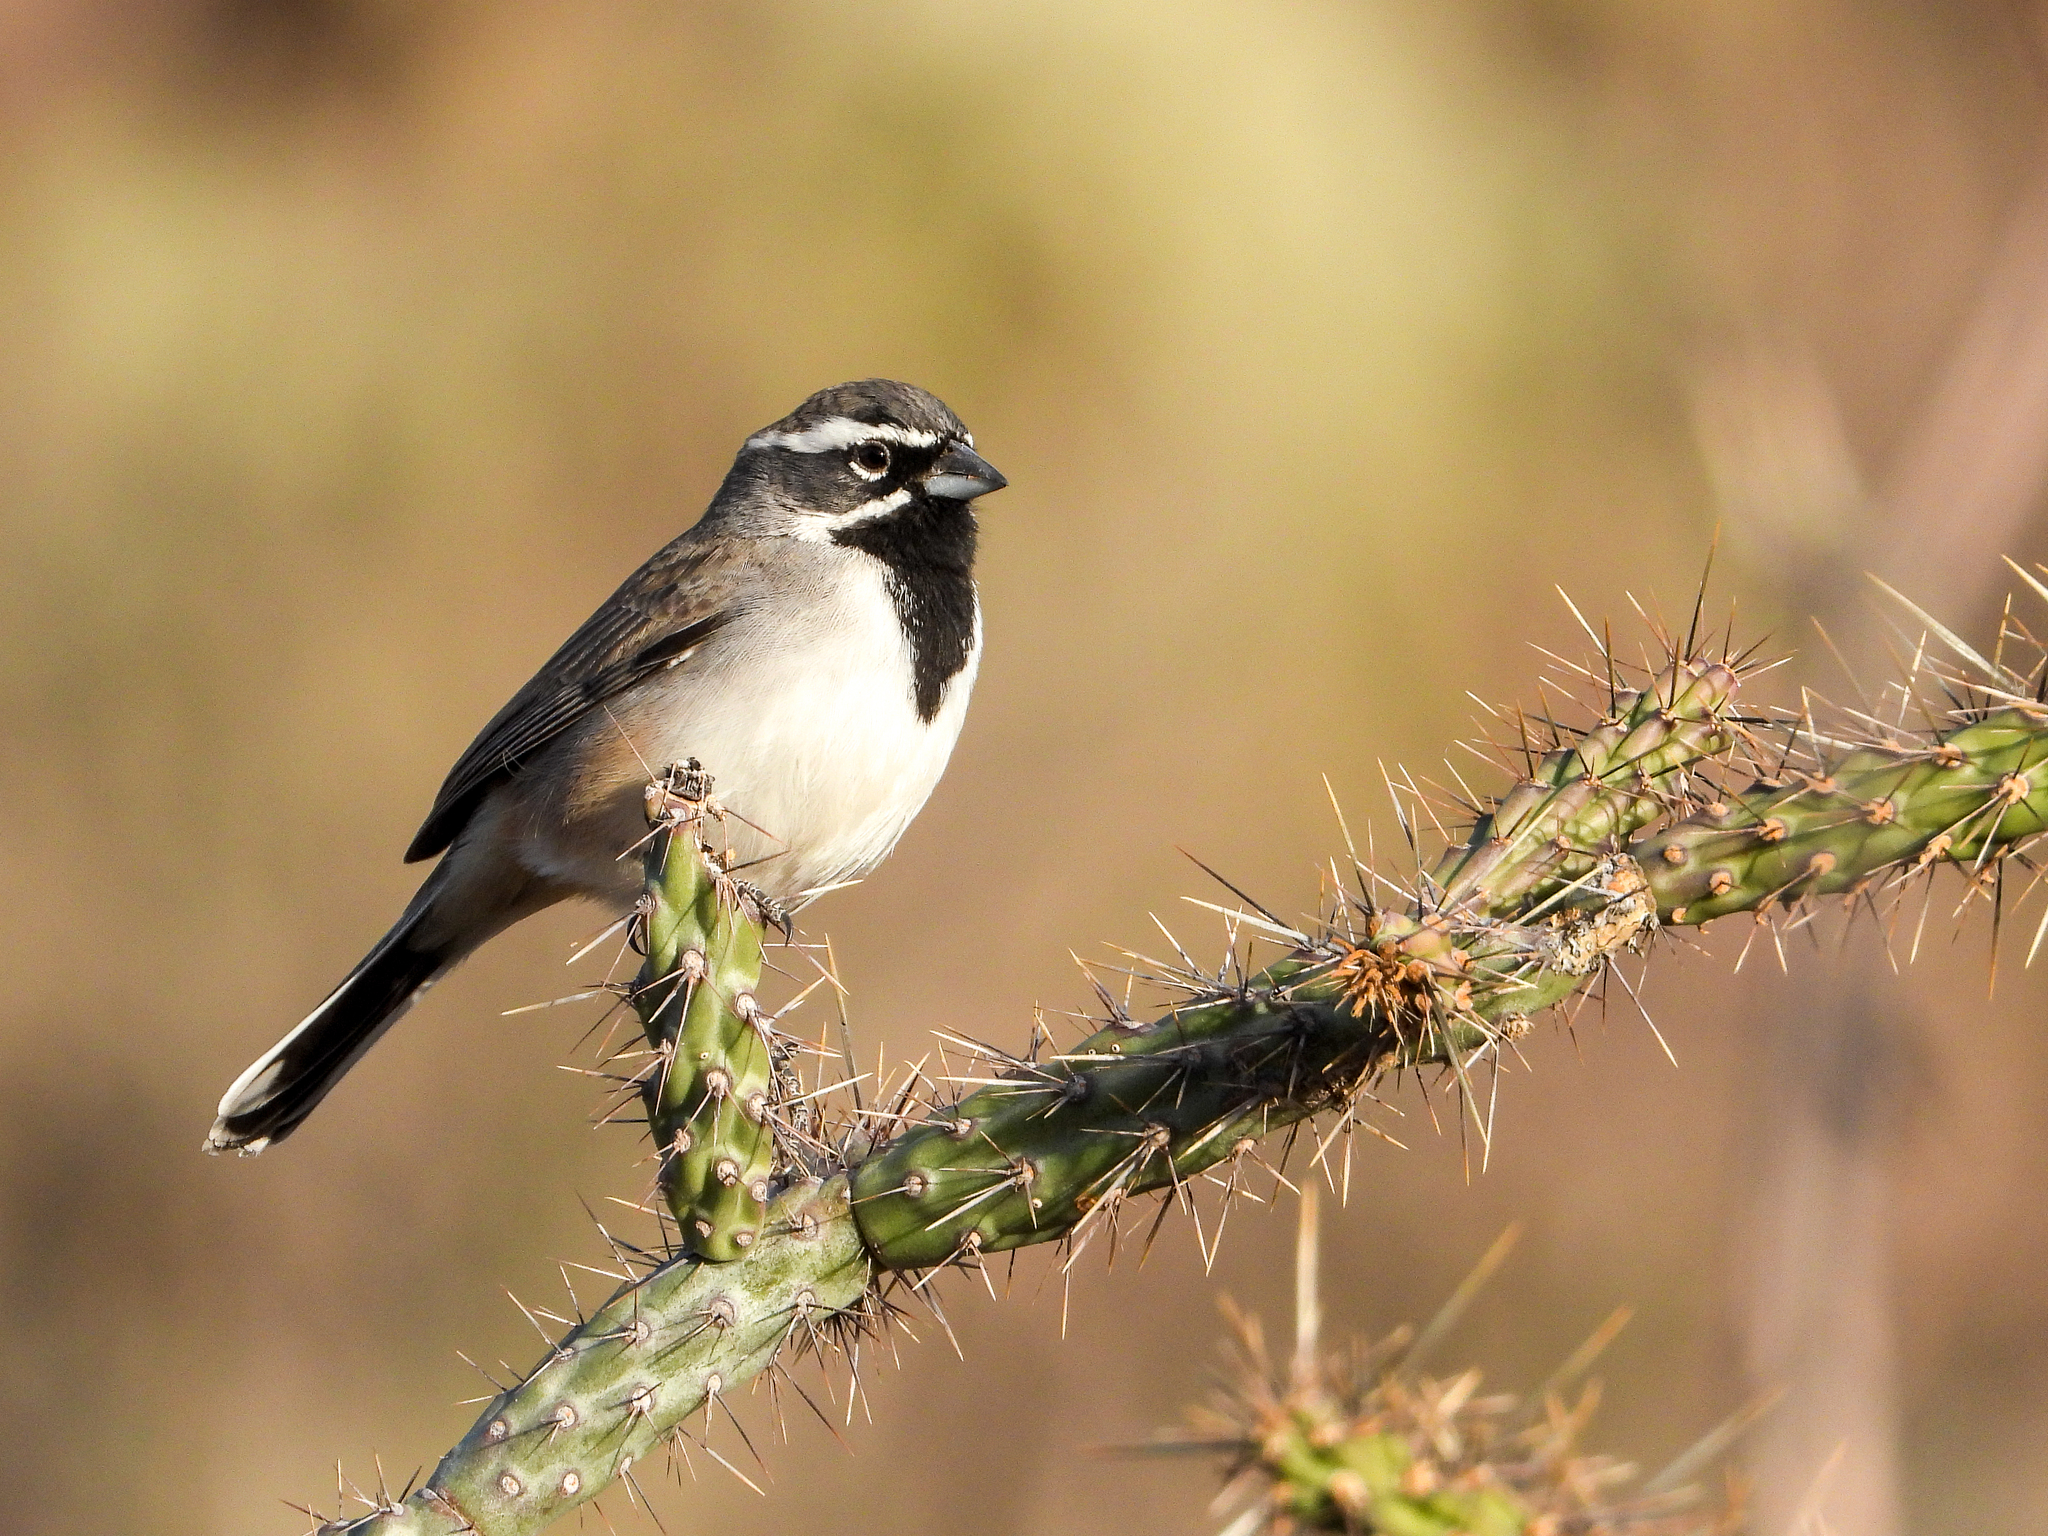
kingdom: Animalia
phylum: Chordata
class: Aves
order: Passeriformes
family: Passerellidae
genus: Amphispiza
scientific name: Amphispiza bilineata
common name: Black-throated sparrow
